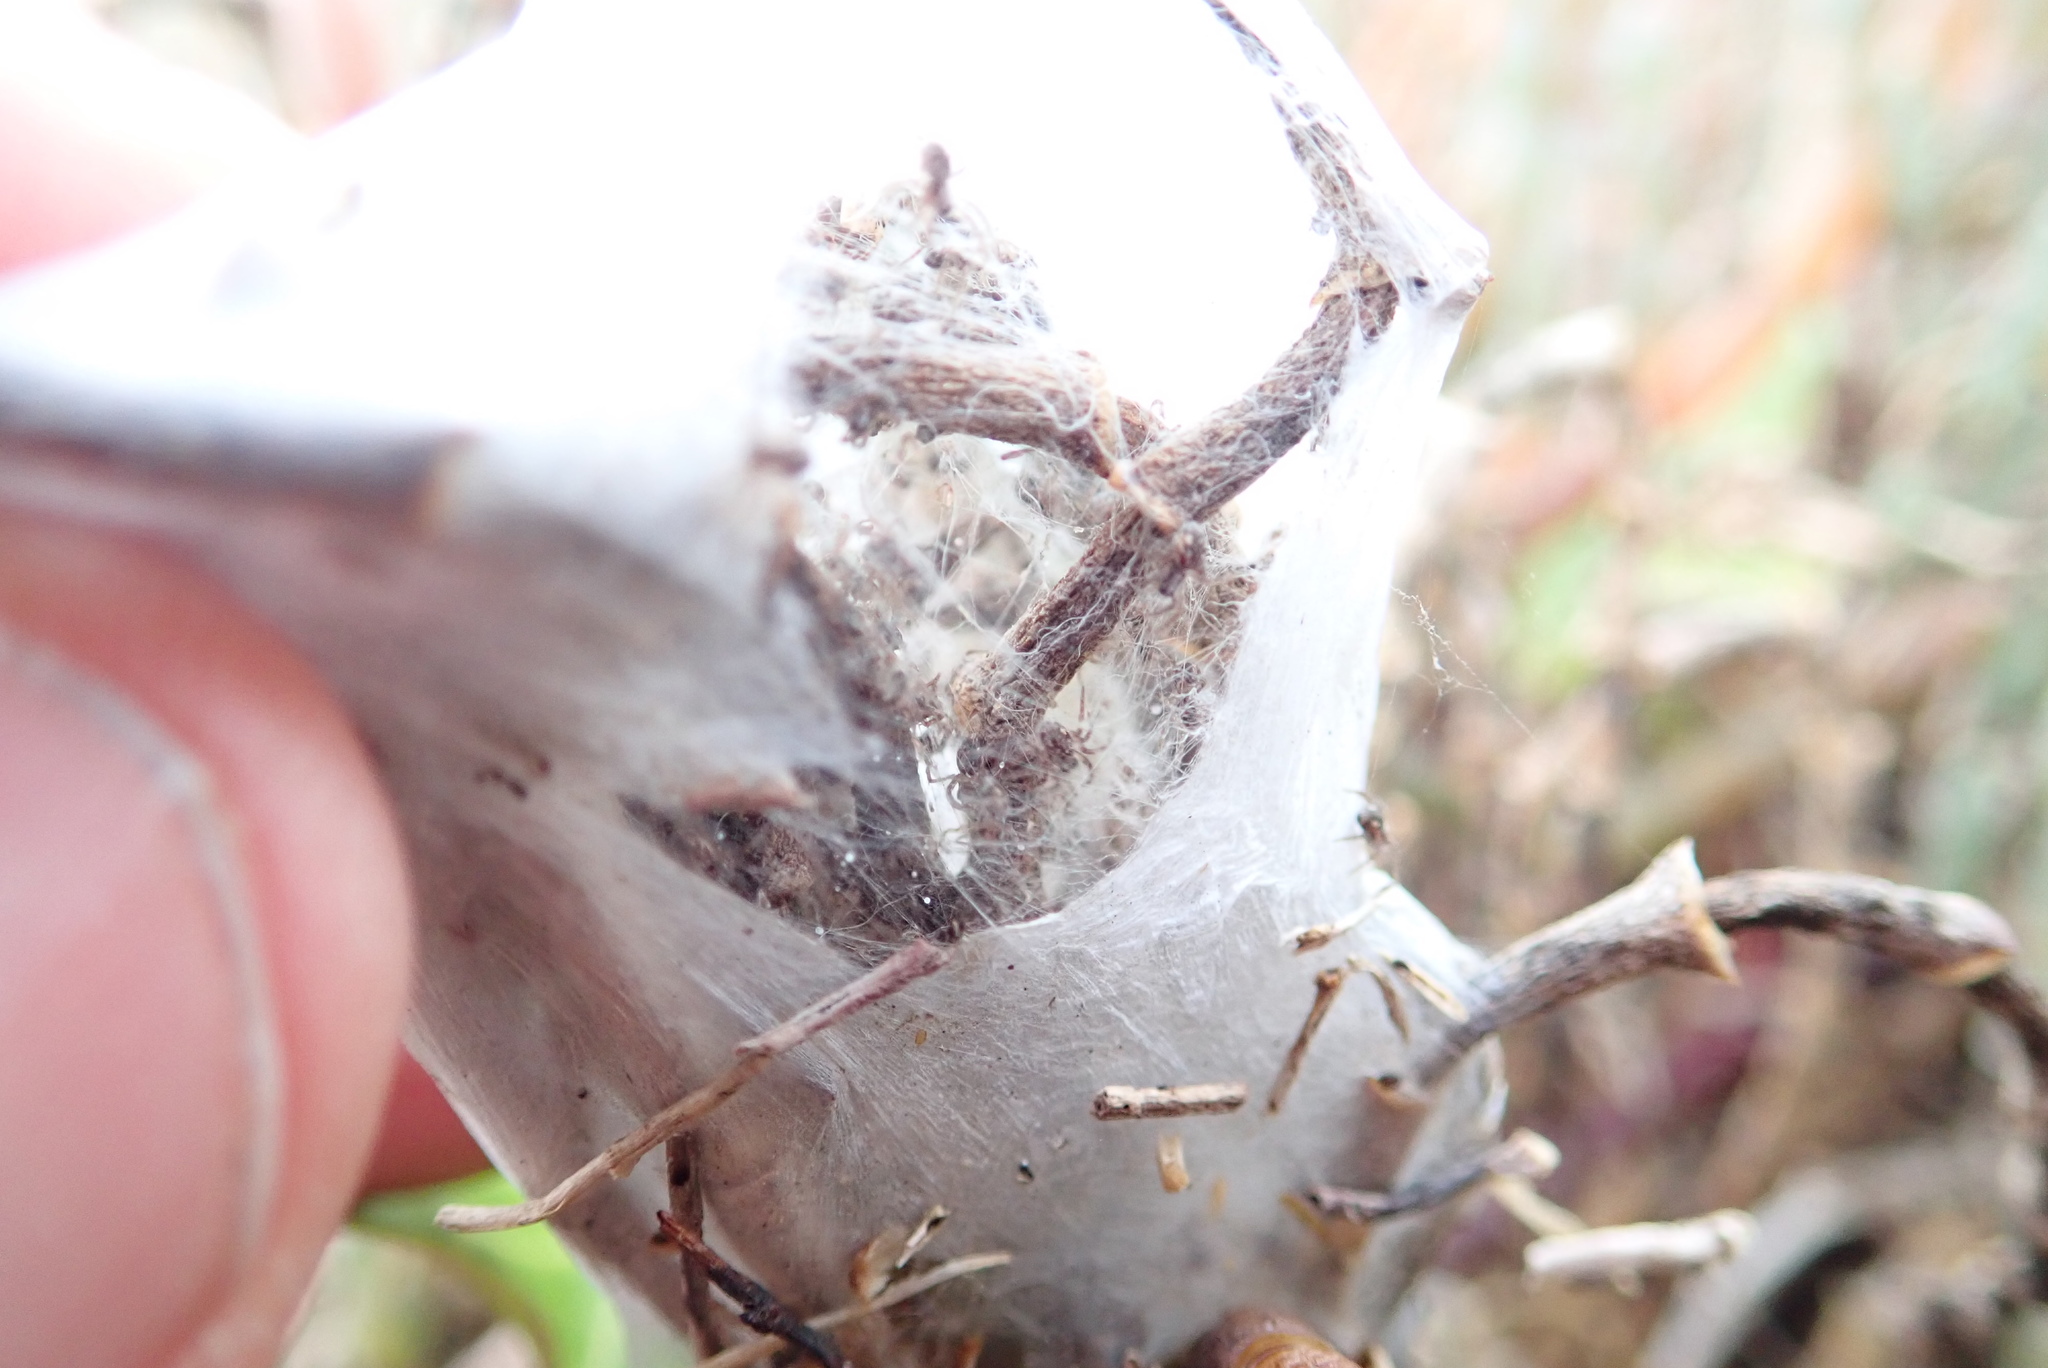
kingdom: Animalia
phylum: Arthropoda
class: Arachnida
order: Araneae
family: Pisauridae
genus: Dolomedes
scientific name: Dolomedes minor
